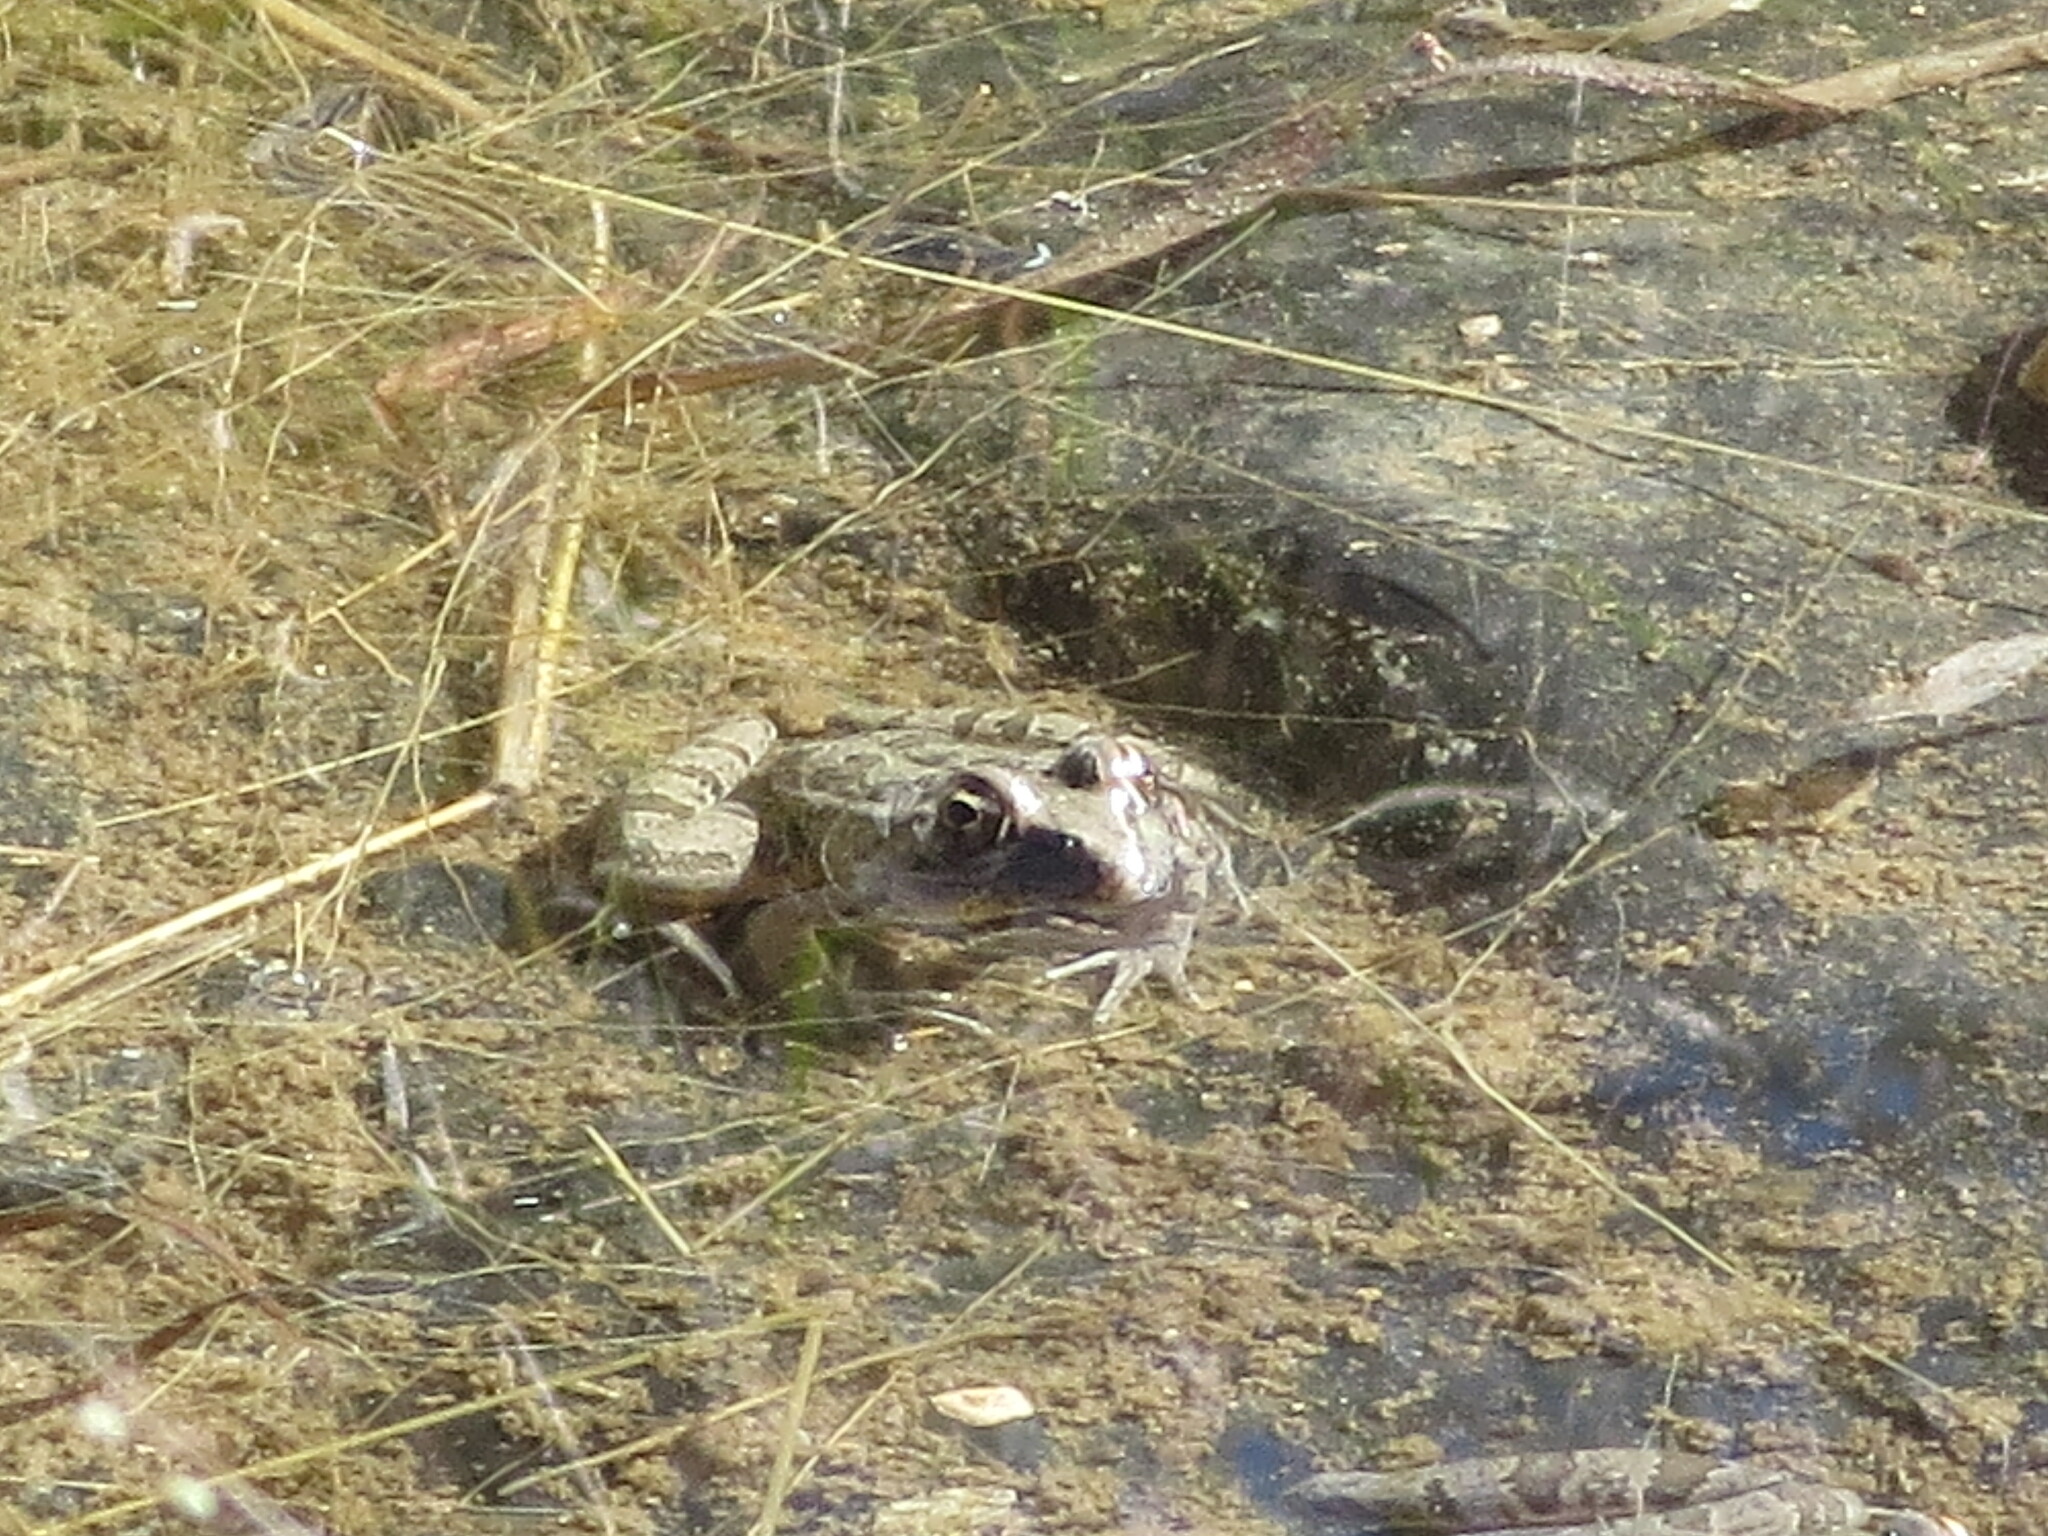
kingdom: Animalia
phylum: Chordata
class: Amphibia
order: Anura
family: Ranidae
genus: Lithobates
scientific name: Lithobates berlandieri
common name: Rio grande leopard frog
